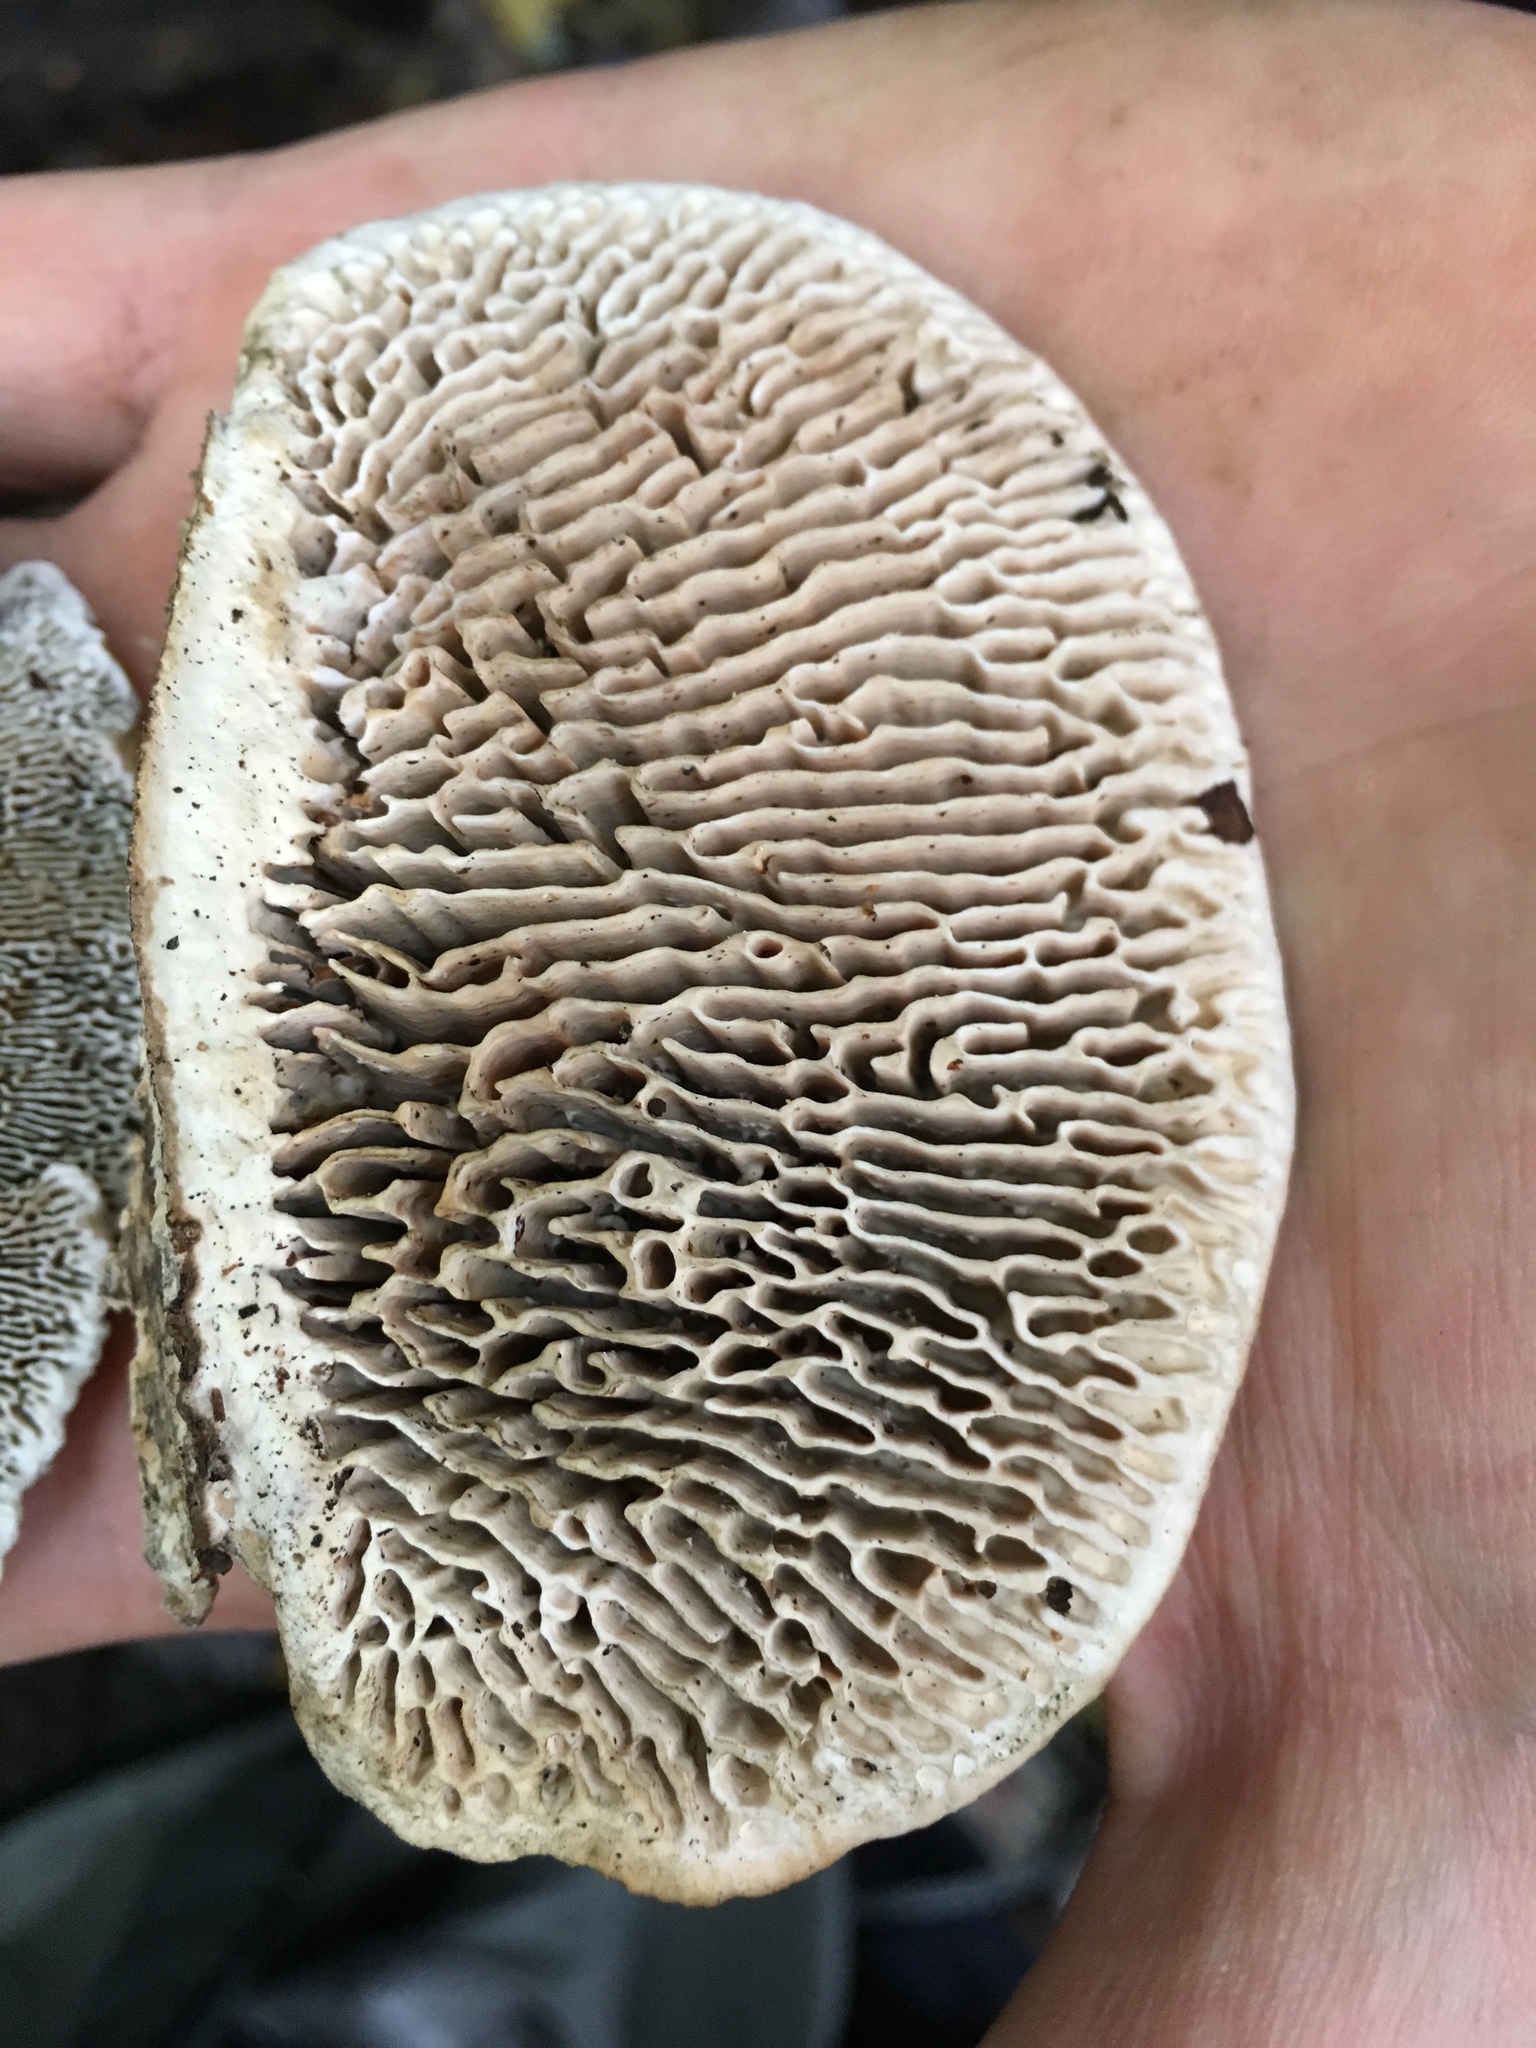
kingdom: Fungi
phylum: Basidiomycota
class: Agaricomycetes
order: Polyporales
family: Fomitopsidaceae
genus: Fomitopsis
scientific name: Fomitopsis
